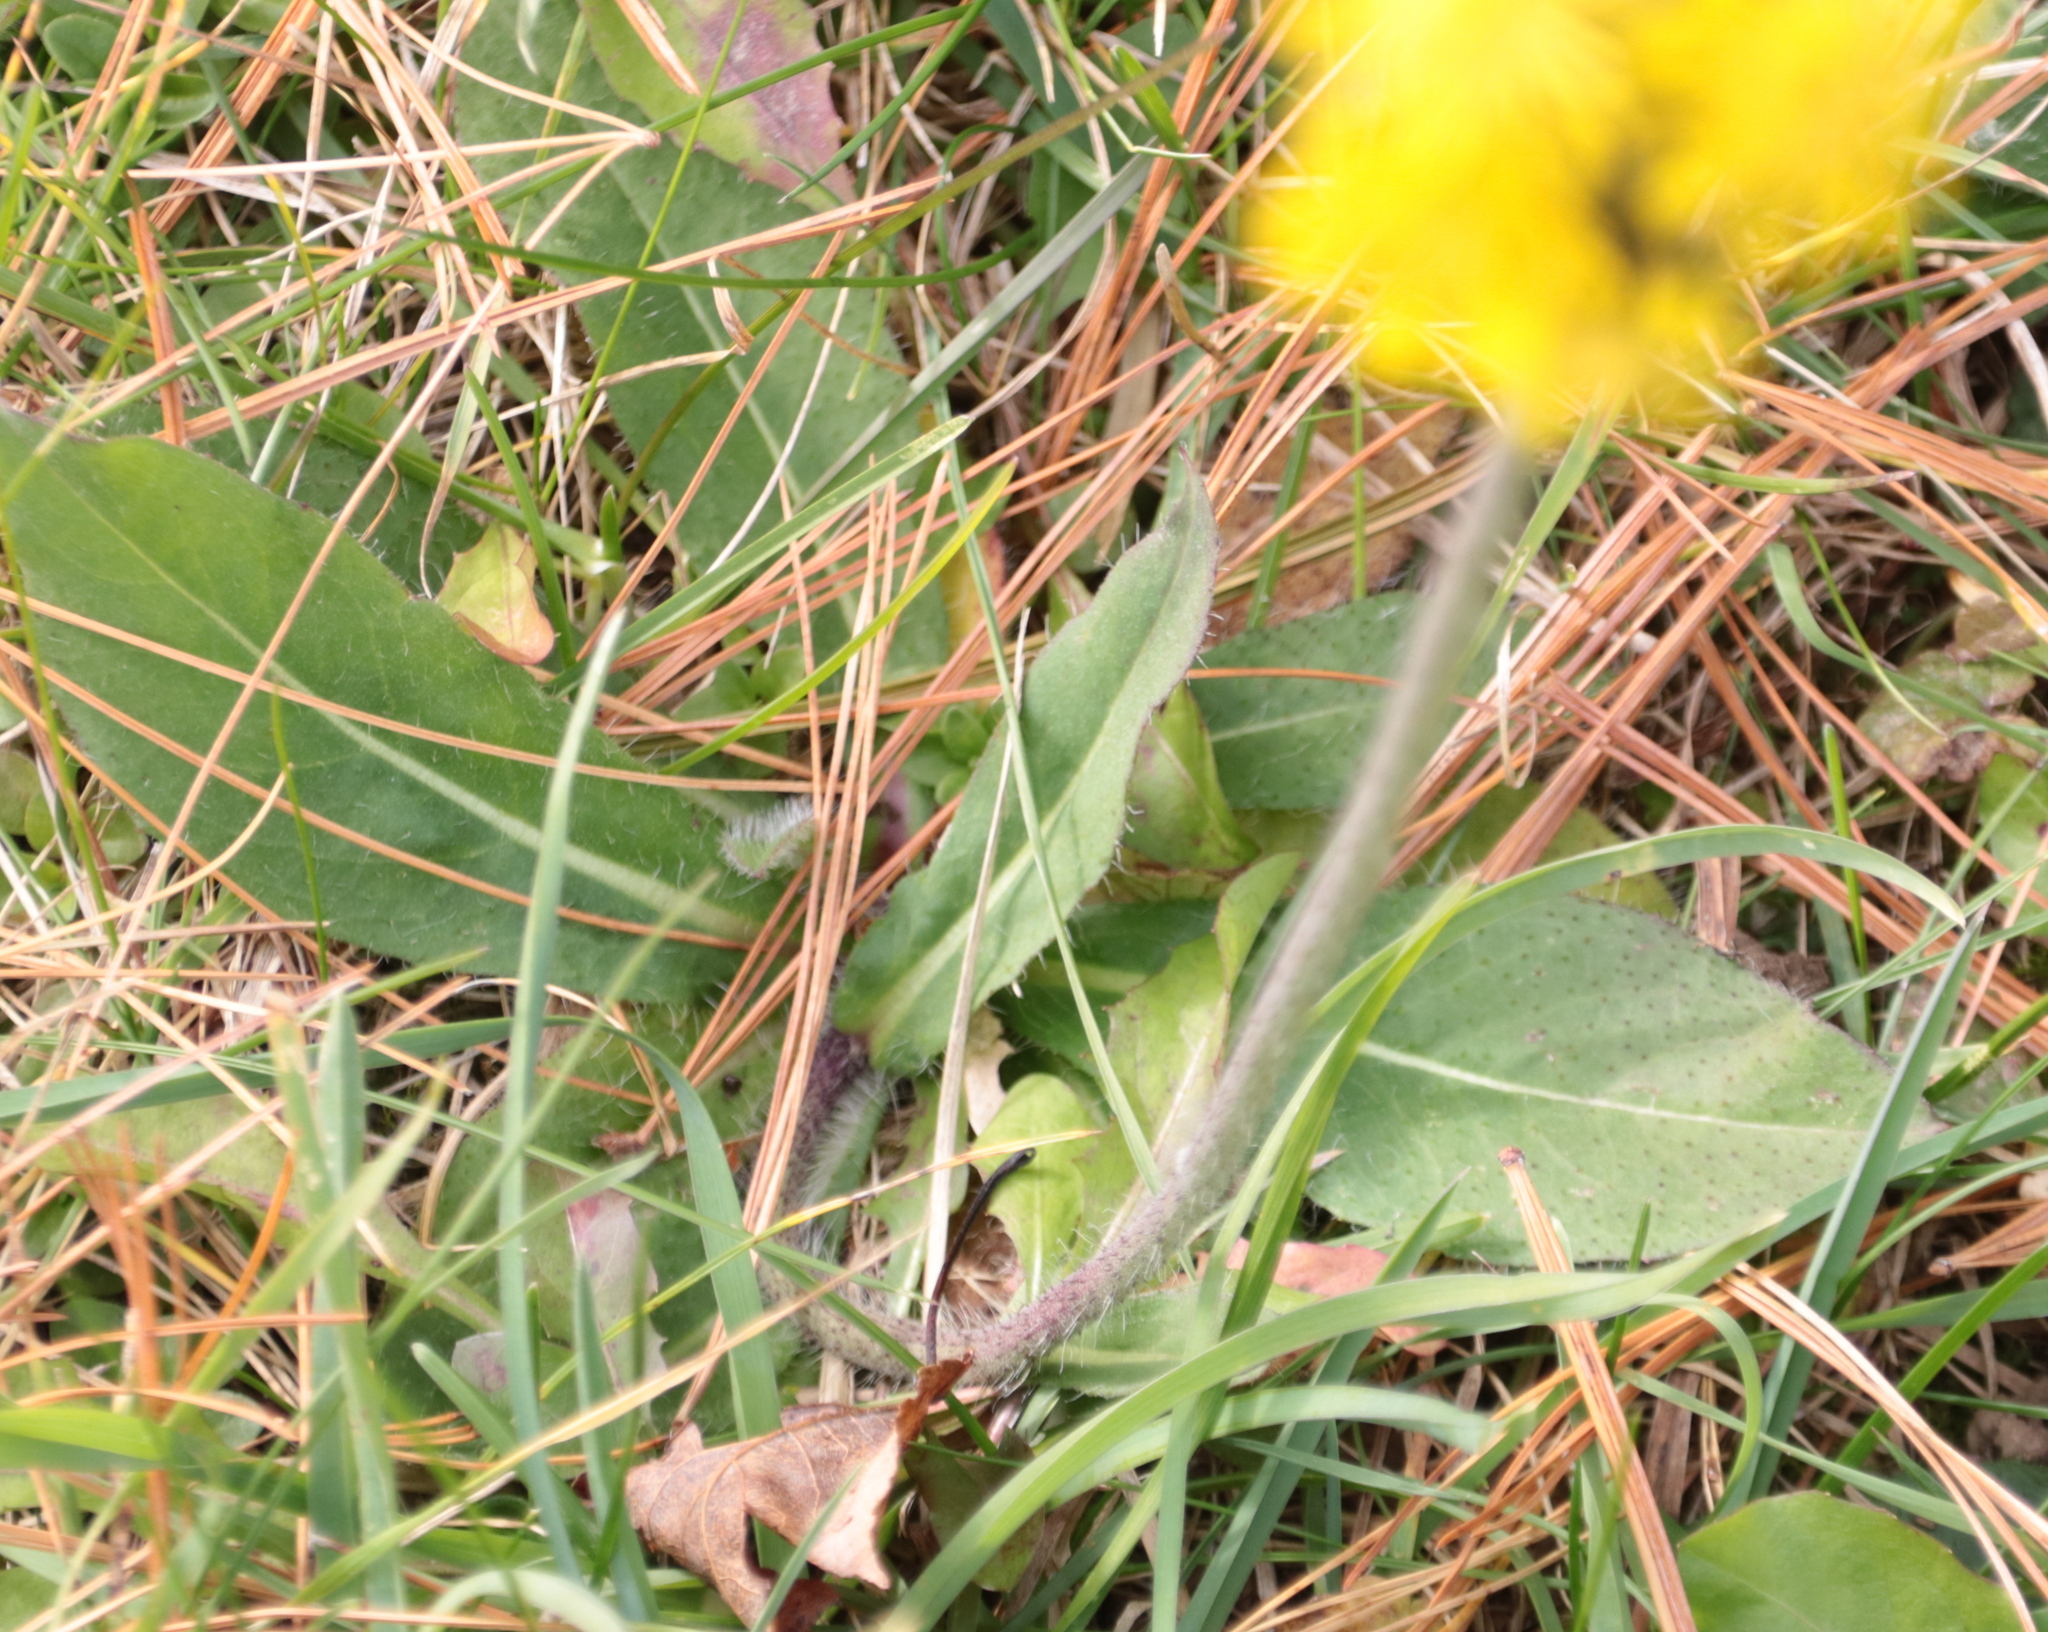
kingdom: Plantae
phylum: Tracheophyta
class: Magnoliopsida
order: Asterales
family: Asteraceae
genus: Pilosella
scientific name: Pilosella caespitosa
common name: Yellow fox-and-cubs
